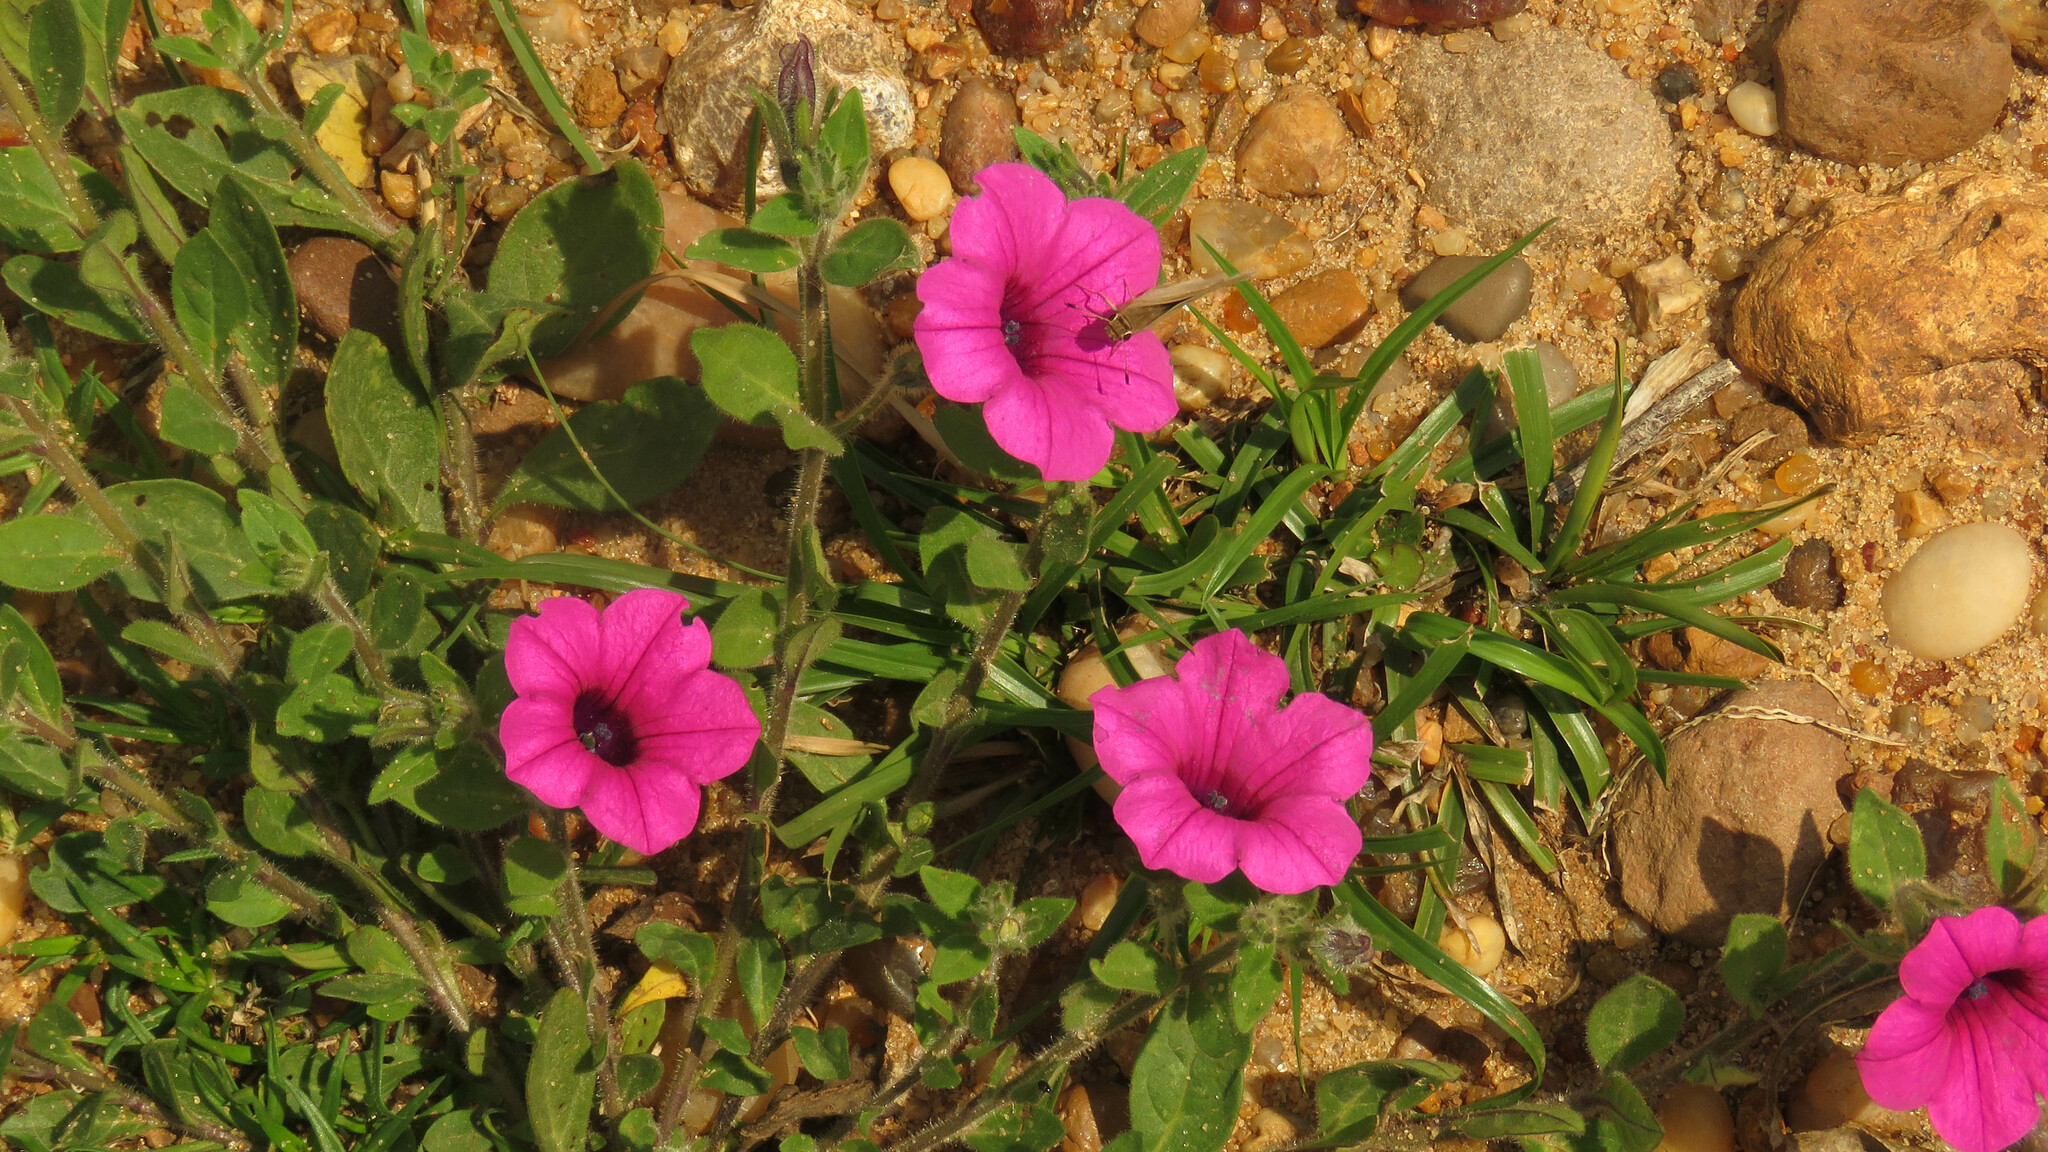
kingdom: Plantae
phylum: Tracheophyta
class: Magnoliopsida
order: Solanales
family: Solanaceae
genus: Petunia
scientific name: Petunia integrifolia
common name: Violet-flower petunia
